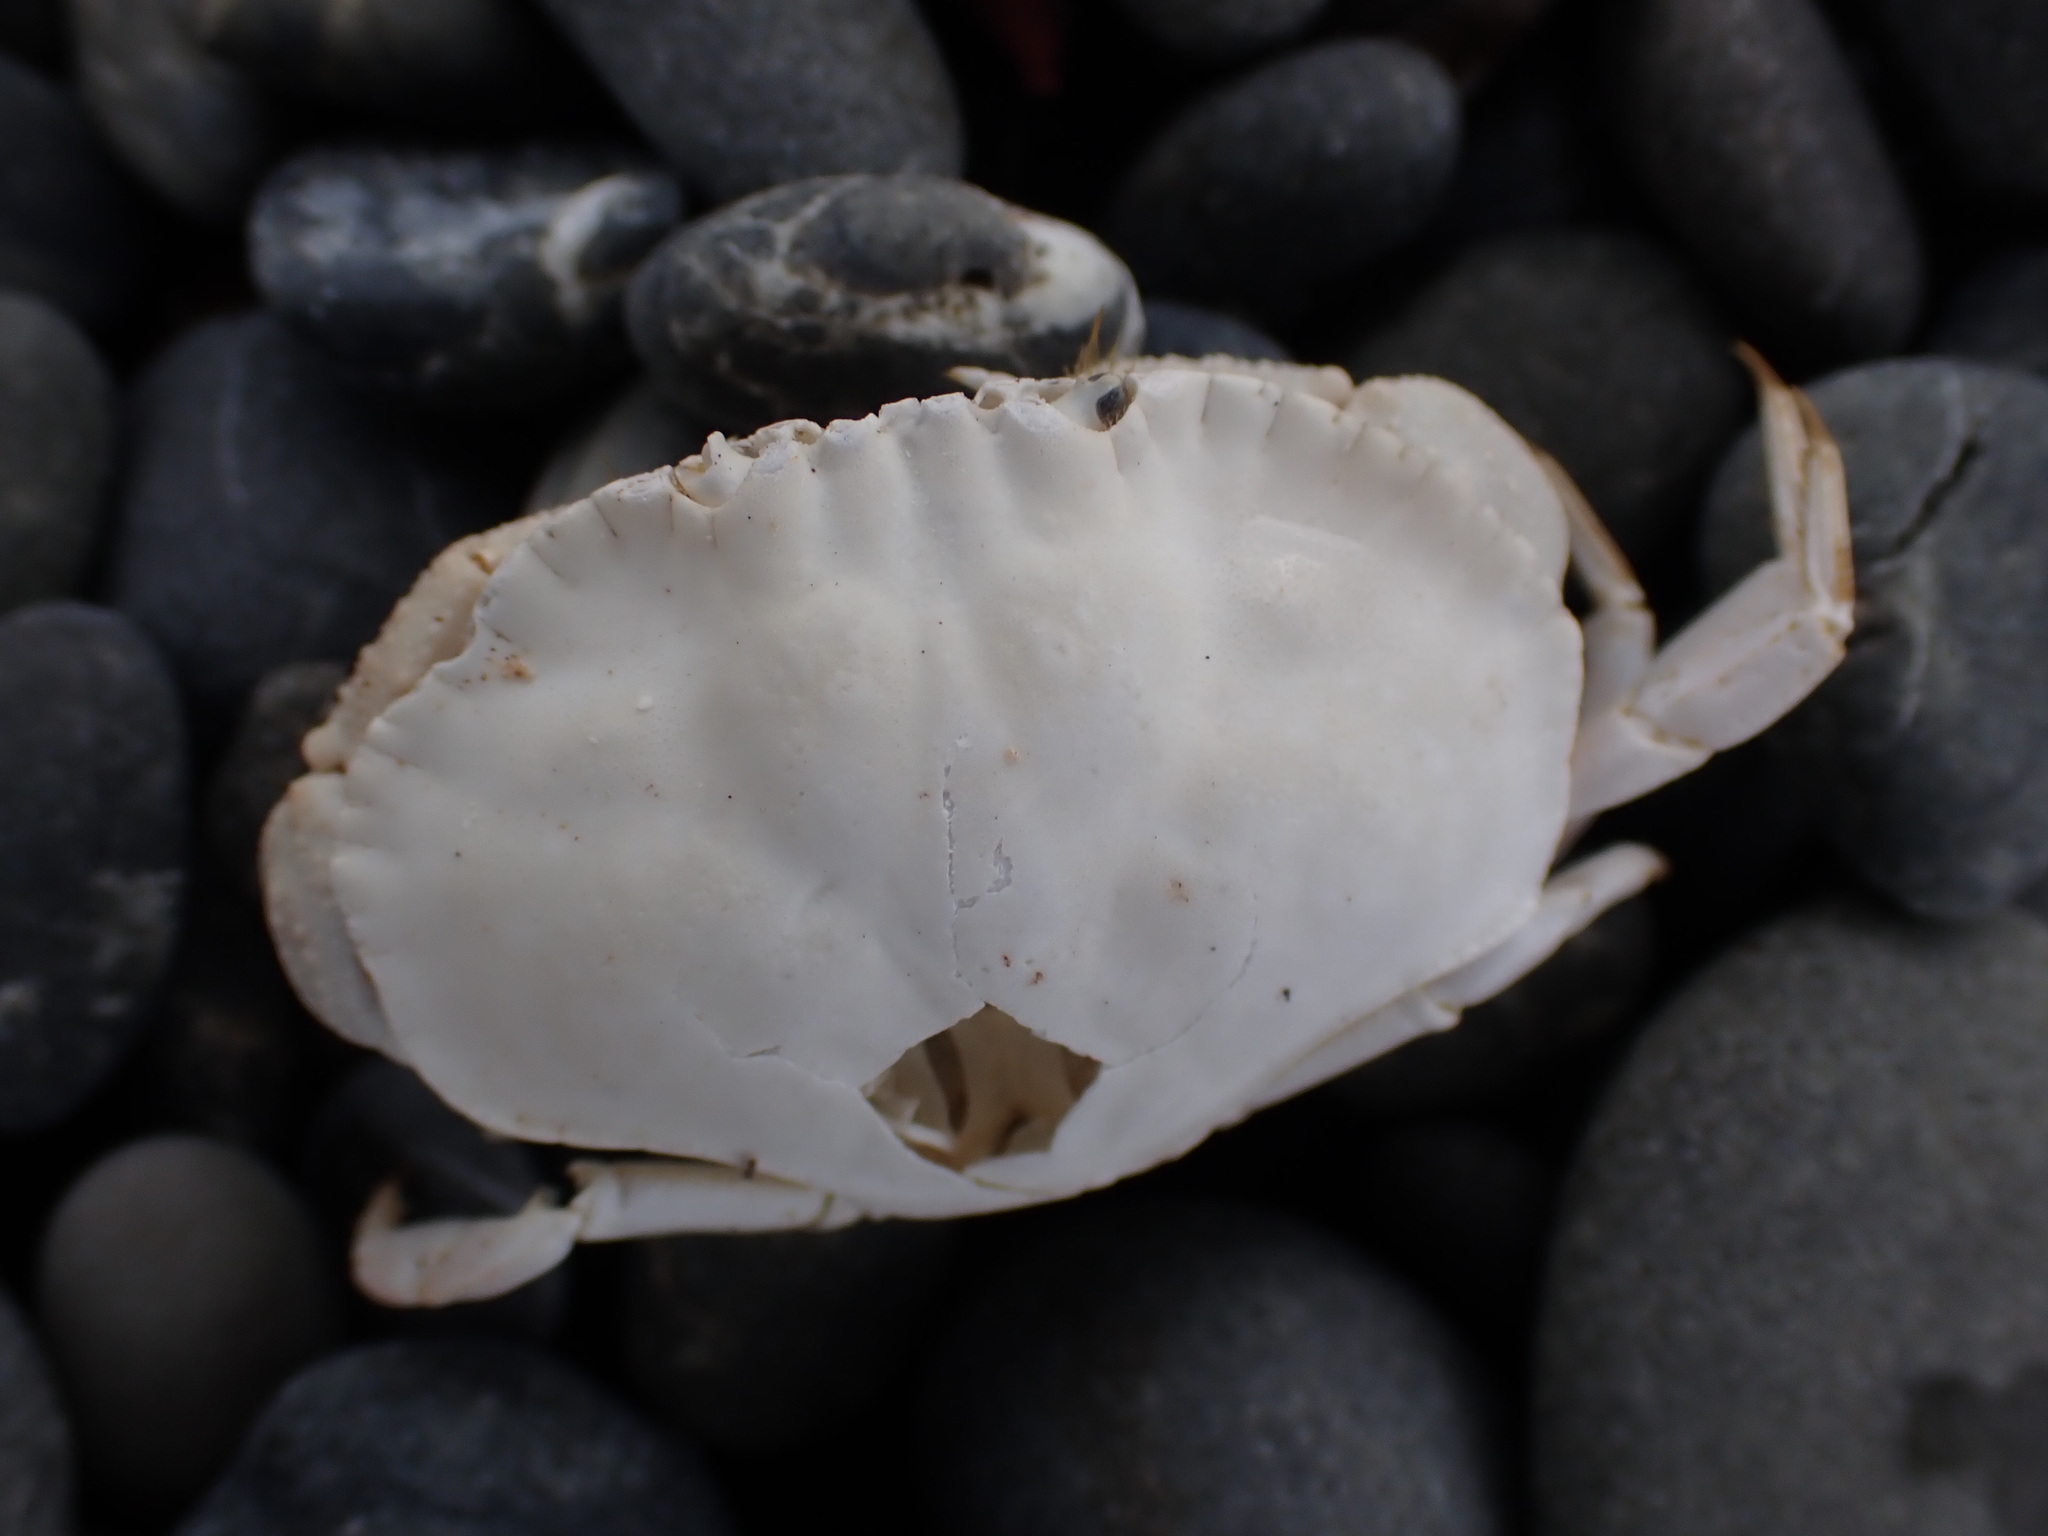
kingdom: Animalia
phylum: Arthropoda
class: Malacostraca
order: Decapoda
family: Cancridae
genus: Metacarcinus
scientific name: Metacarcinus novaezelandiae
